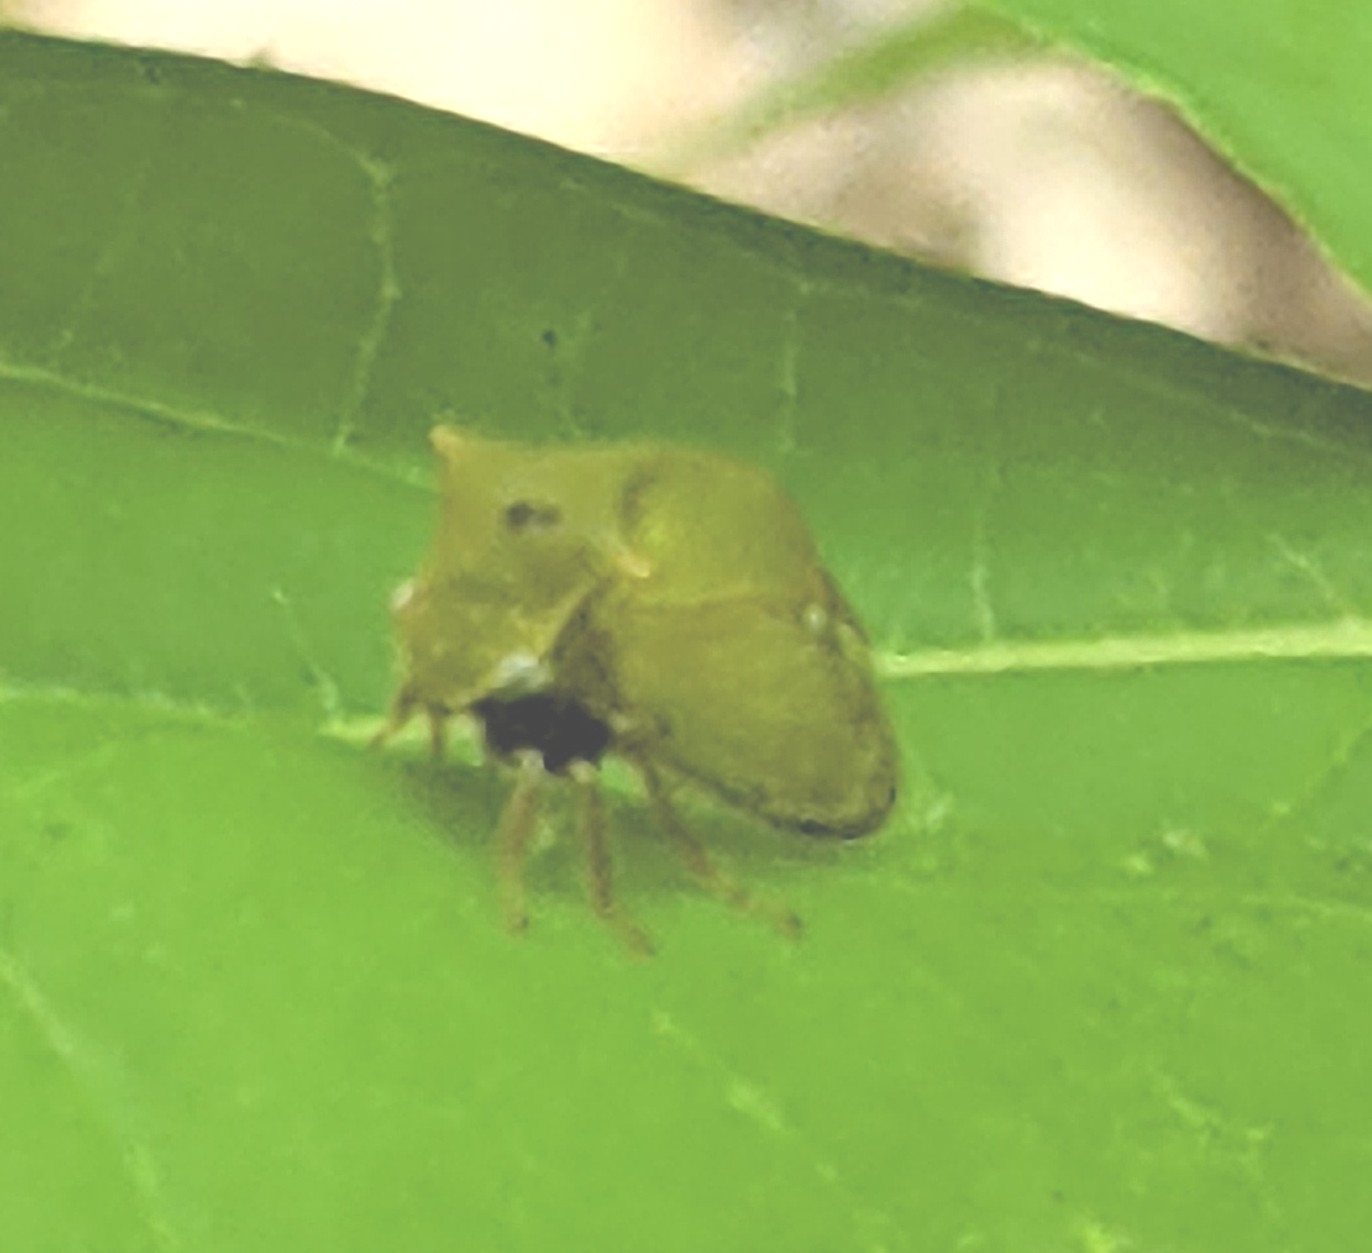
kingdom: Animalia
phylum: Arthropoda
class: Insecta
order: Hemiptera
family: Membracidae
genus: Stictocephala
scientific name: Stictocephala brevitylus
